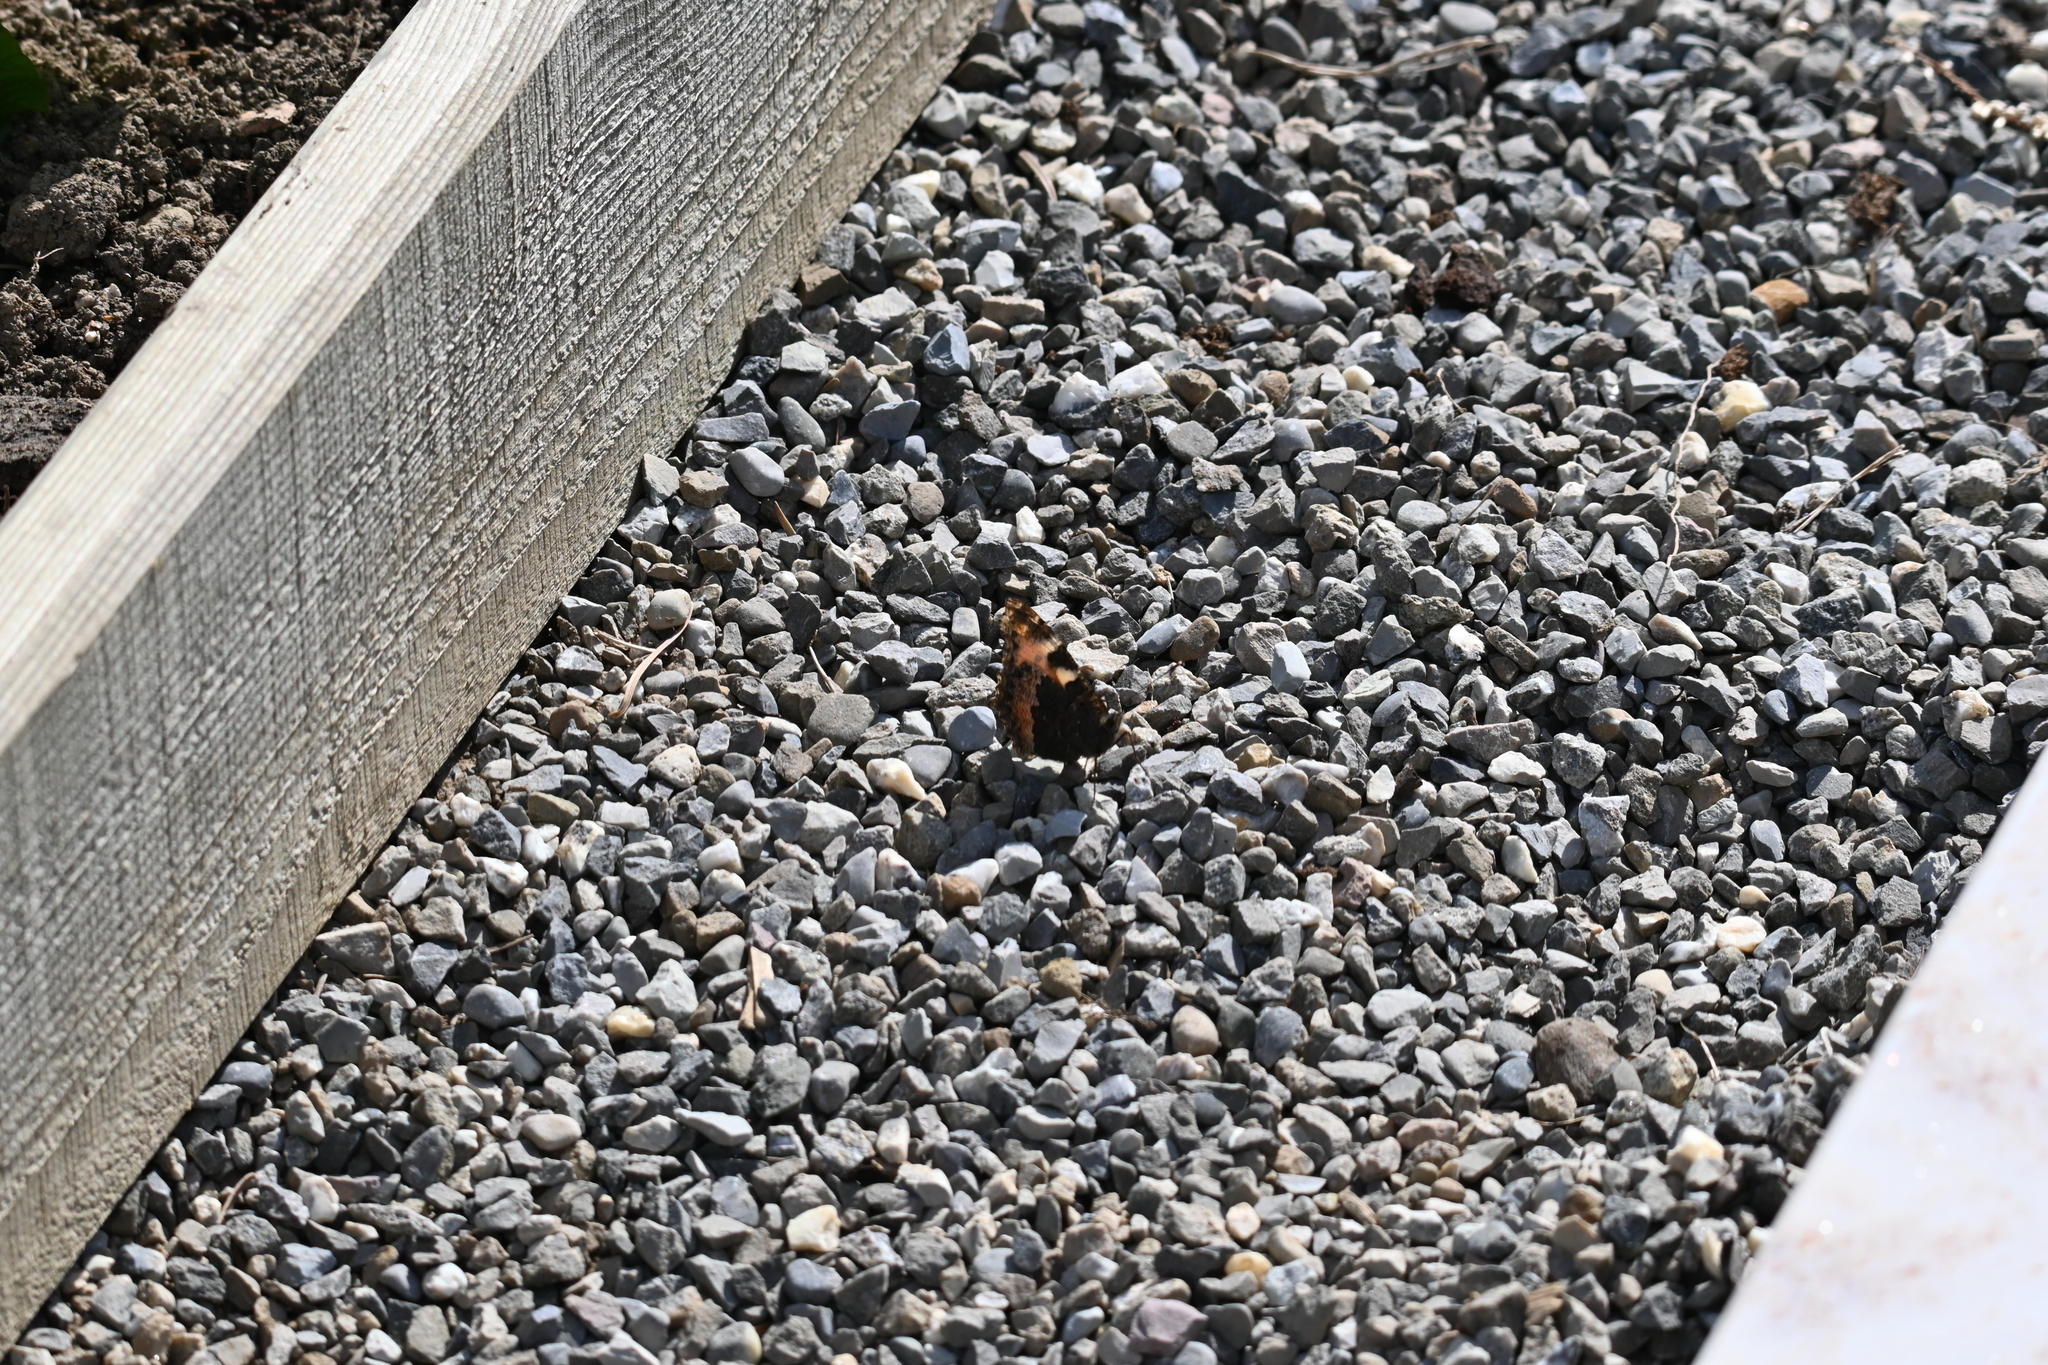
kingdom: Animalia
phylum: Arthropoda
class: Insecta
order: Lepidoptera
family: Nymphalidae
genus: Aglais
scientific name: Aglais urticae
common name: Small tortoiseshell
